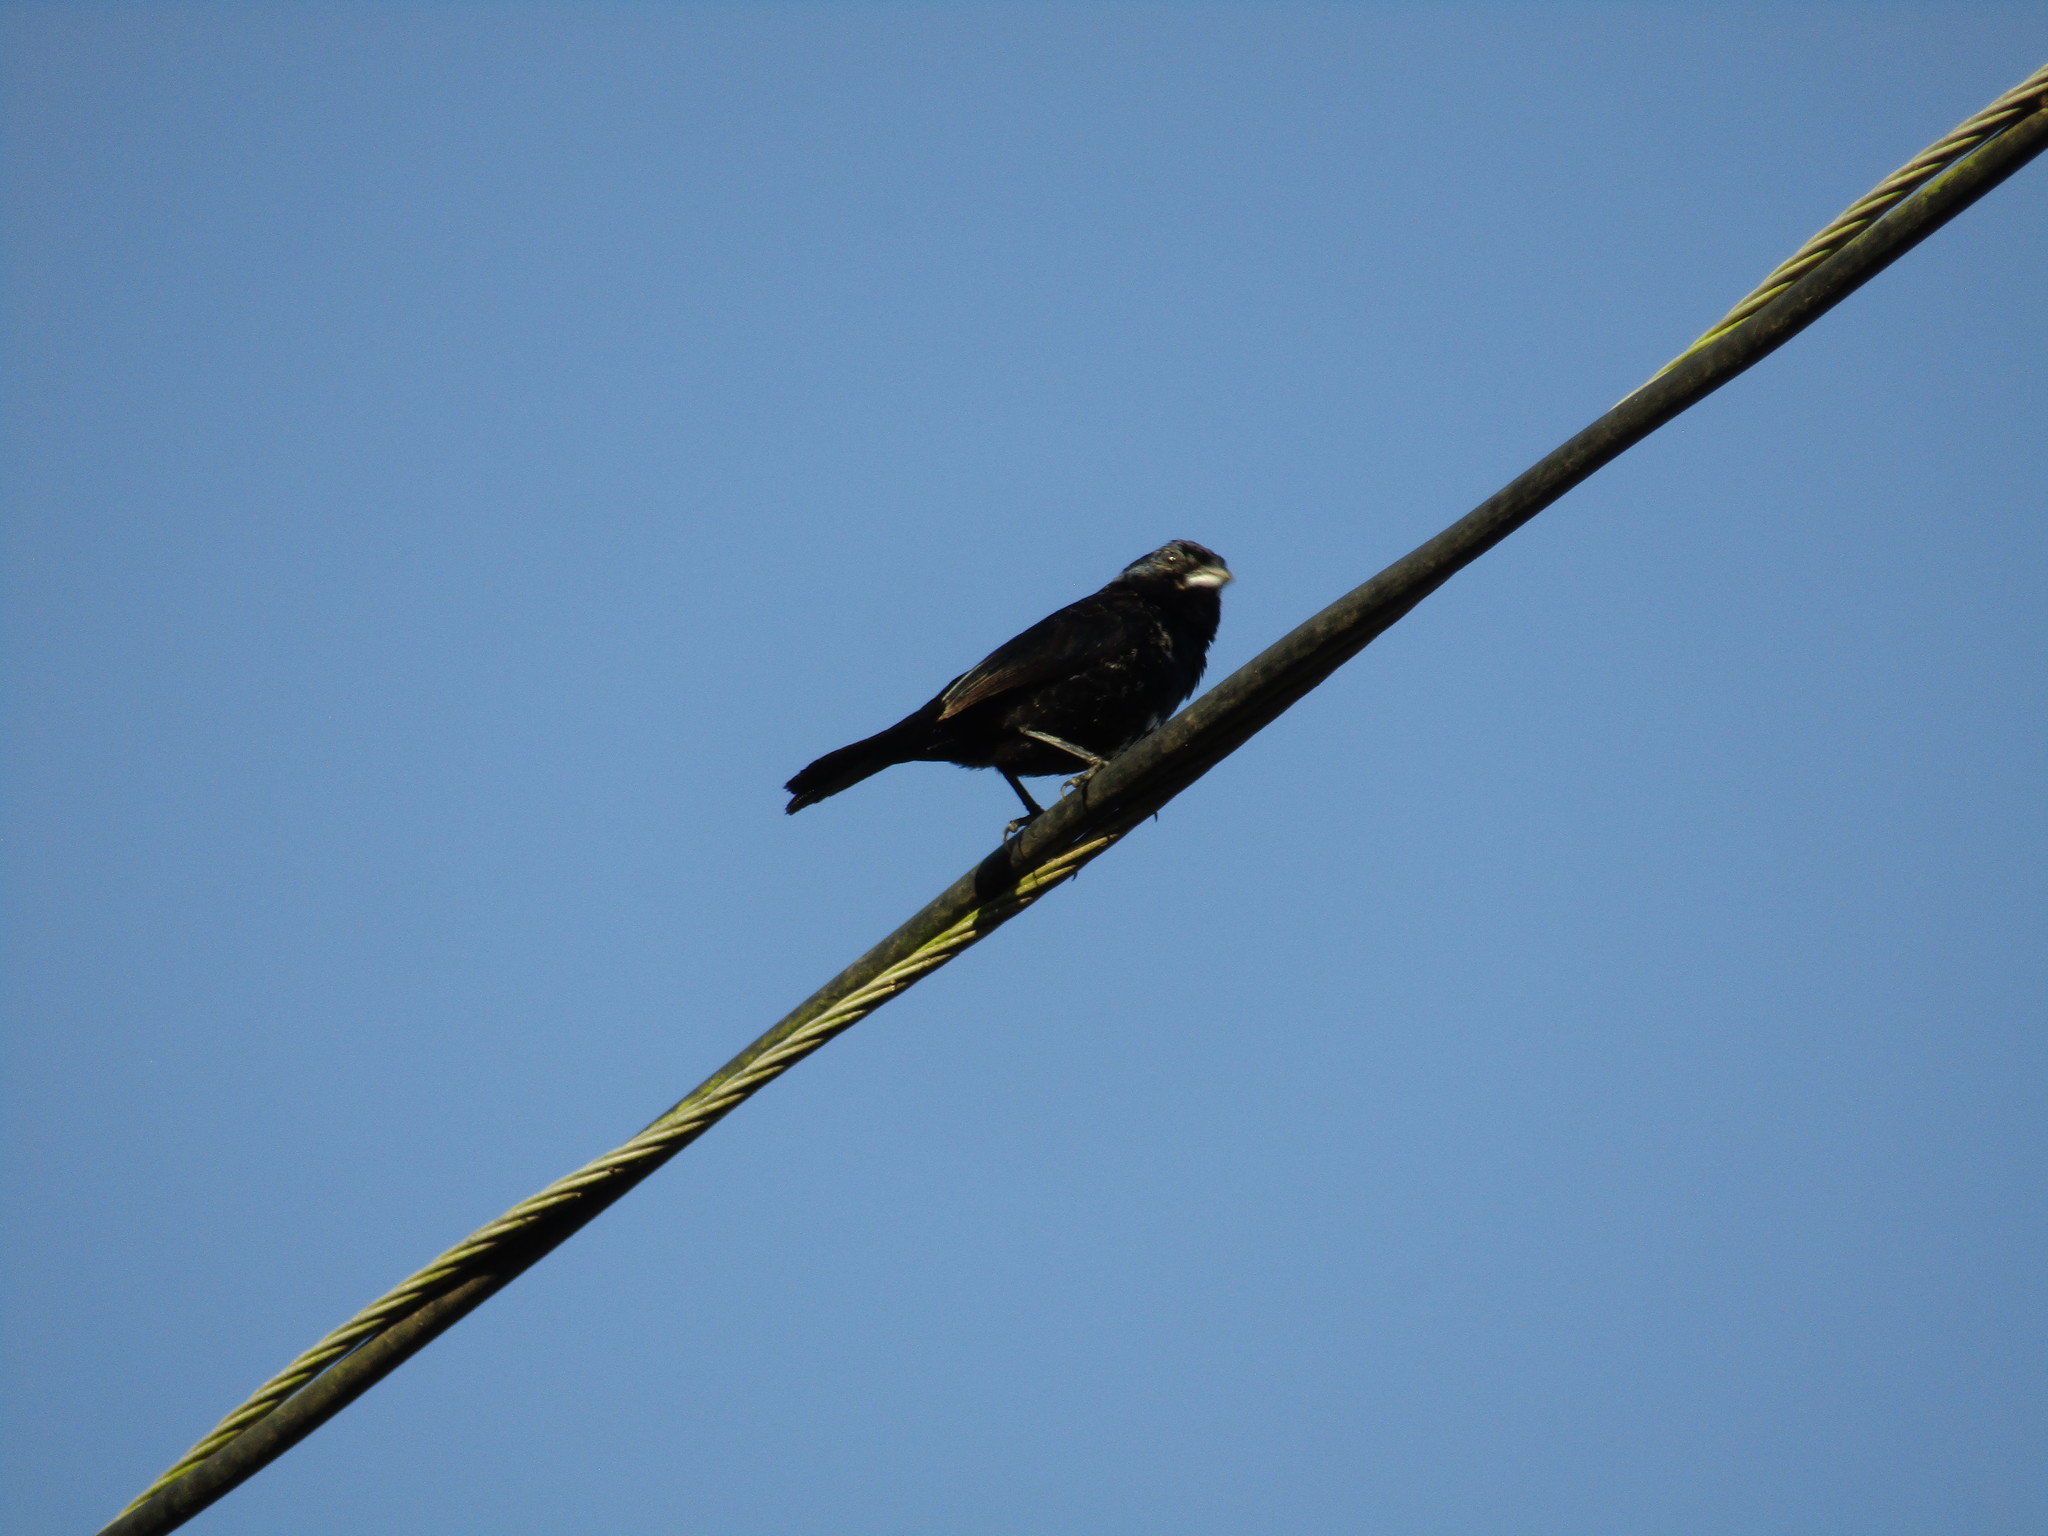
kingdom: Animalia
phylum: Chordata
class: Aves
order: Passeriformes
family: Thraupidae
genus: Volatinia
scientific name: Volatinia jacarina
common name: Blue-black grassquit
